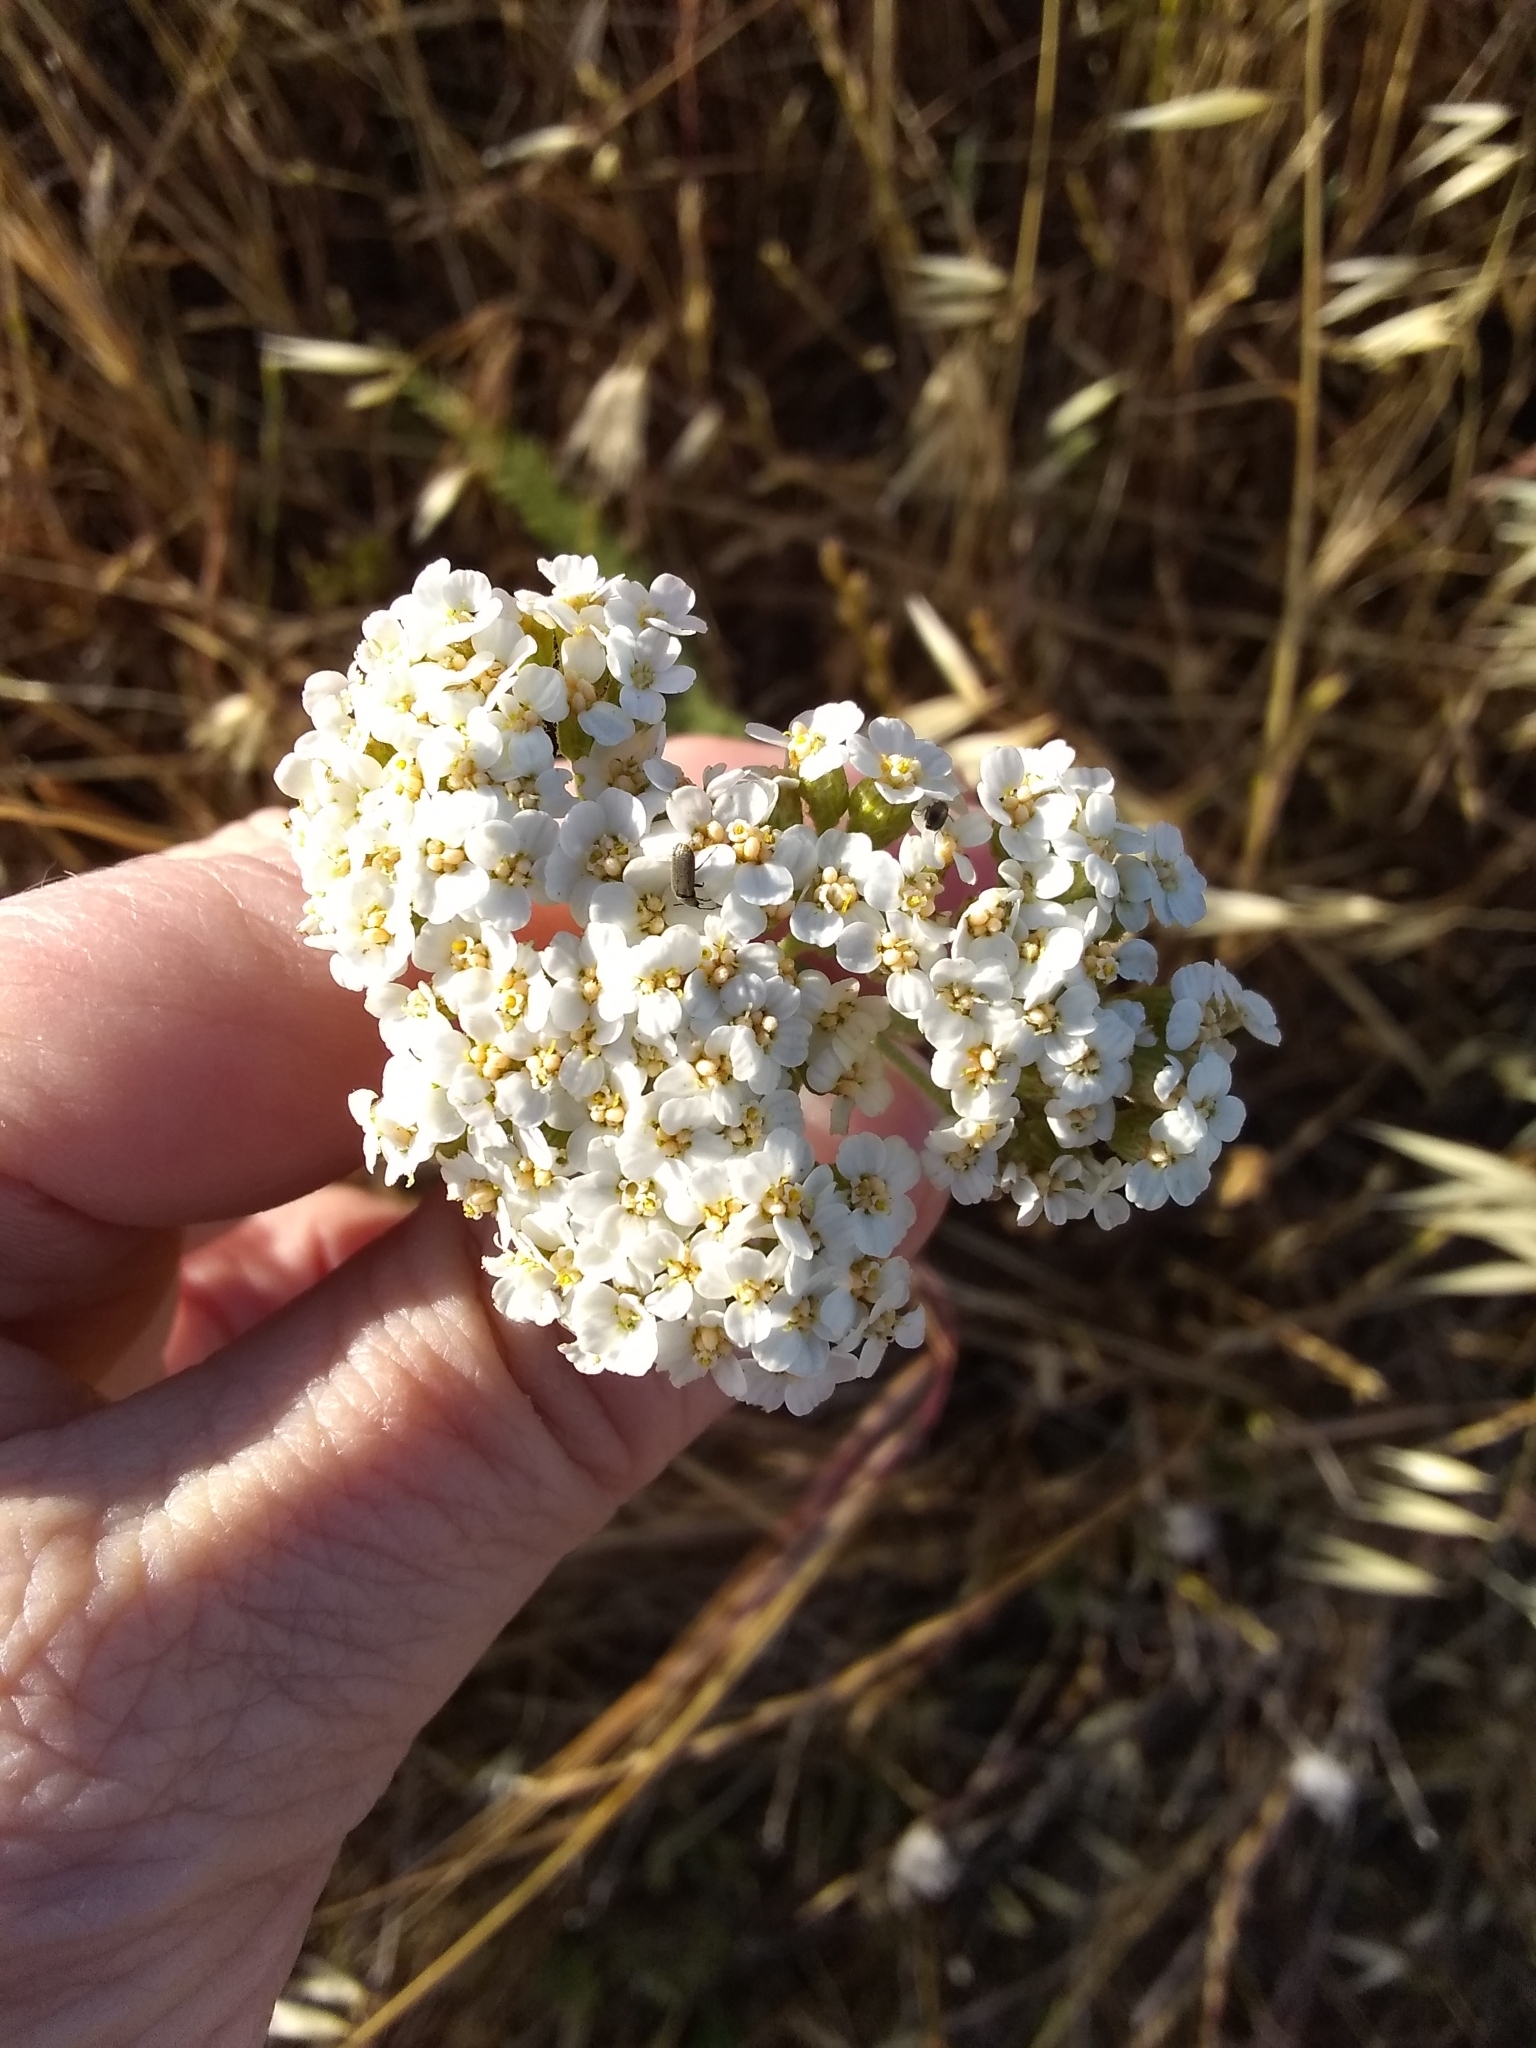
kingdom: Plantae
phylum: Tracheophyta
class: Magnoliopsida
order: Asterales
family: Asteraceae
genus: Achillea
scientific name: Achillea millefolium
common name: Yarrow
